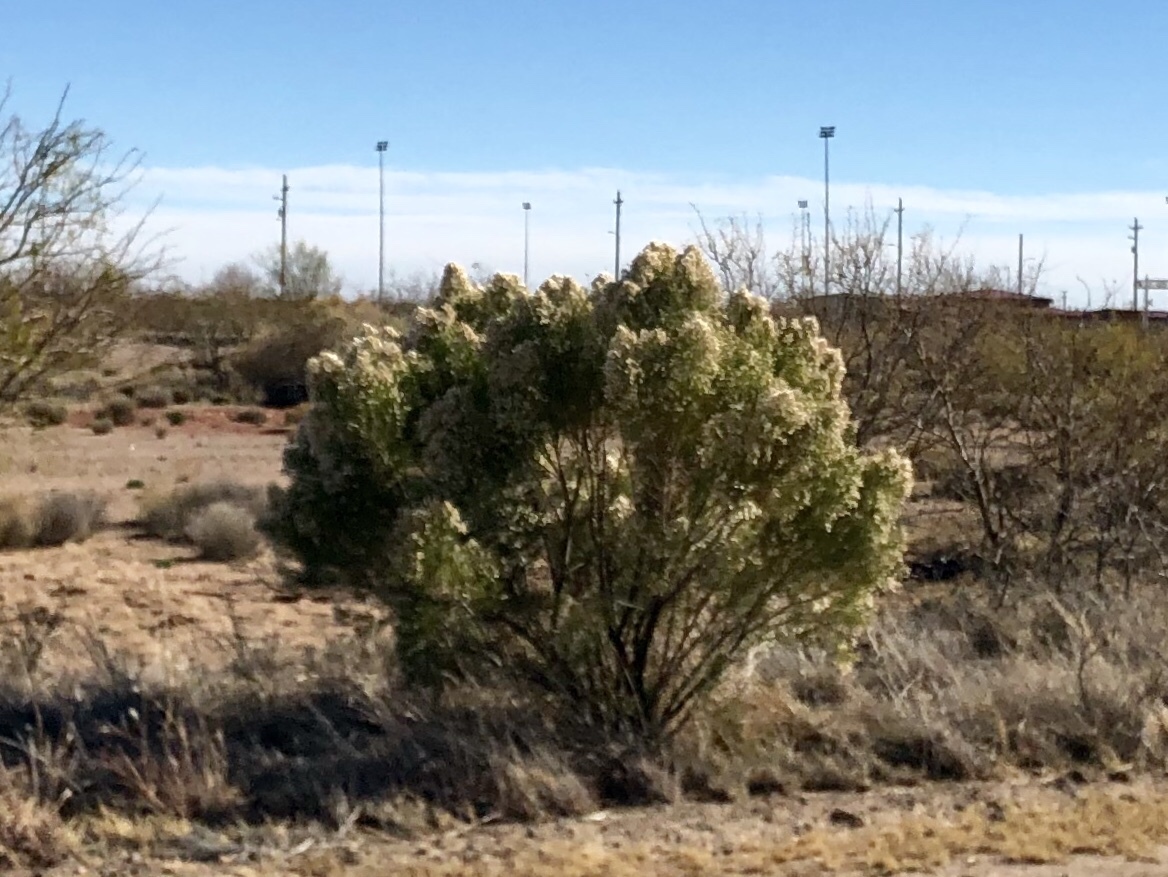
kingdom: Plantae
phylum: Tracheophyta
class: Magnoliopsida
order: Asterales
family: Asteraceae
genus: Baccharis
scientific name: Baccharis sarothroides
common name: Desert-broom
